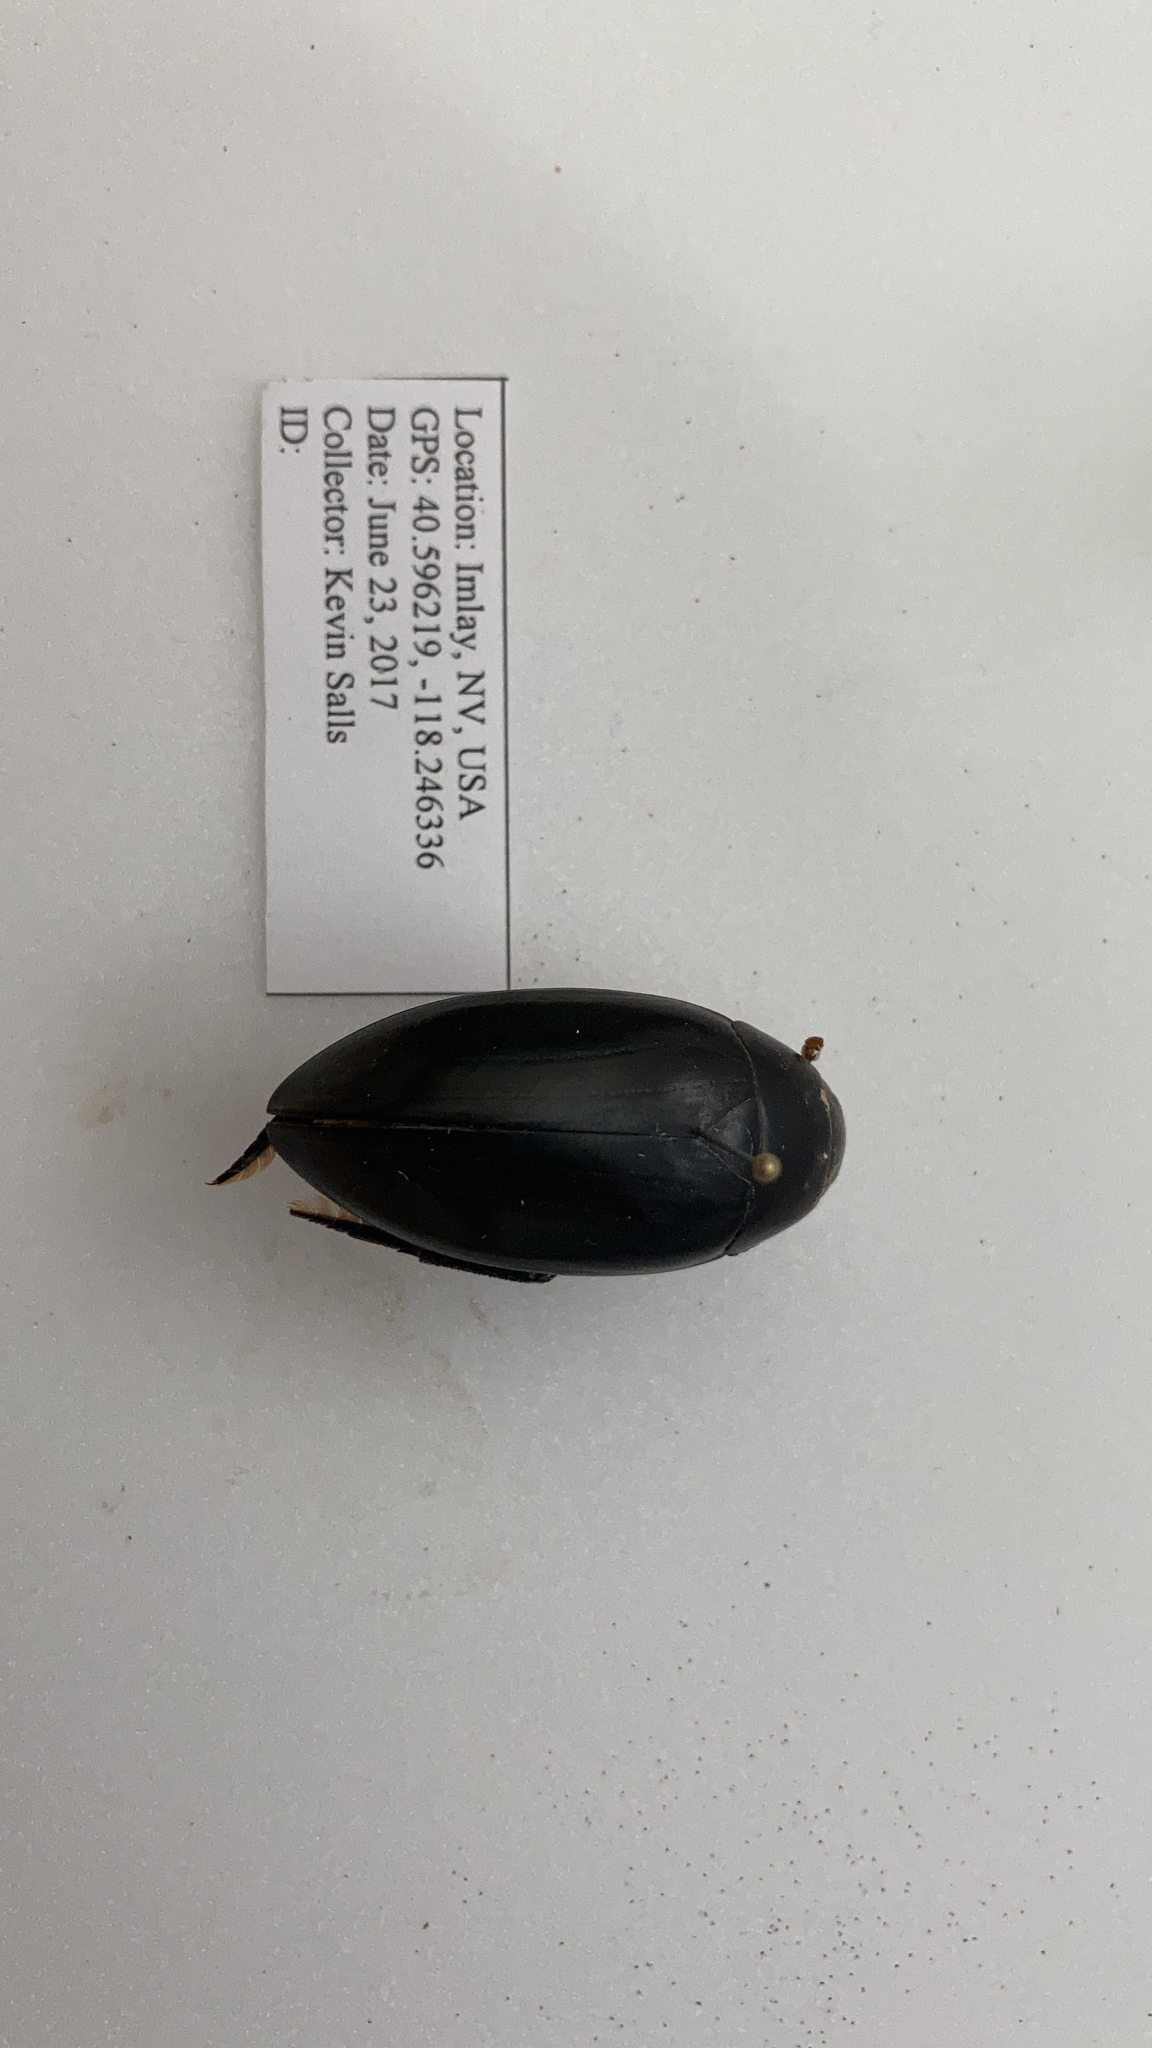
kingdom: Animalia
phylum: Arthropoda
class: Insecta
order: Coleoptera
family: Hydrophilidae
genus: Hydrophilus
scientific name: Hydrophilus triangularis
